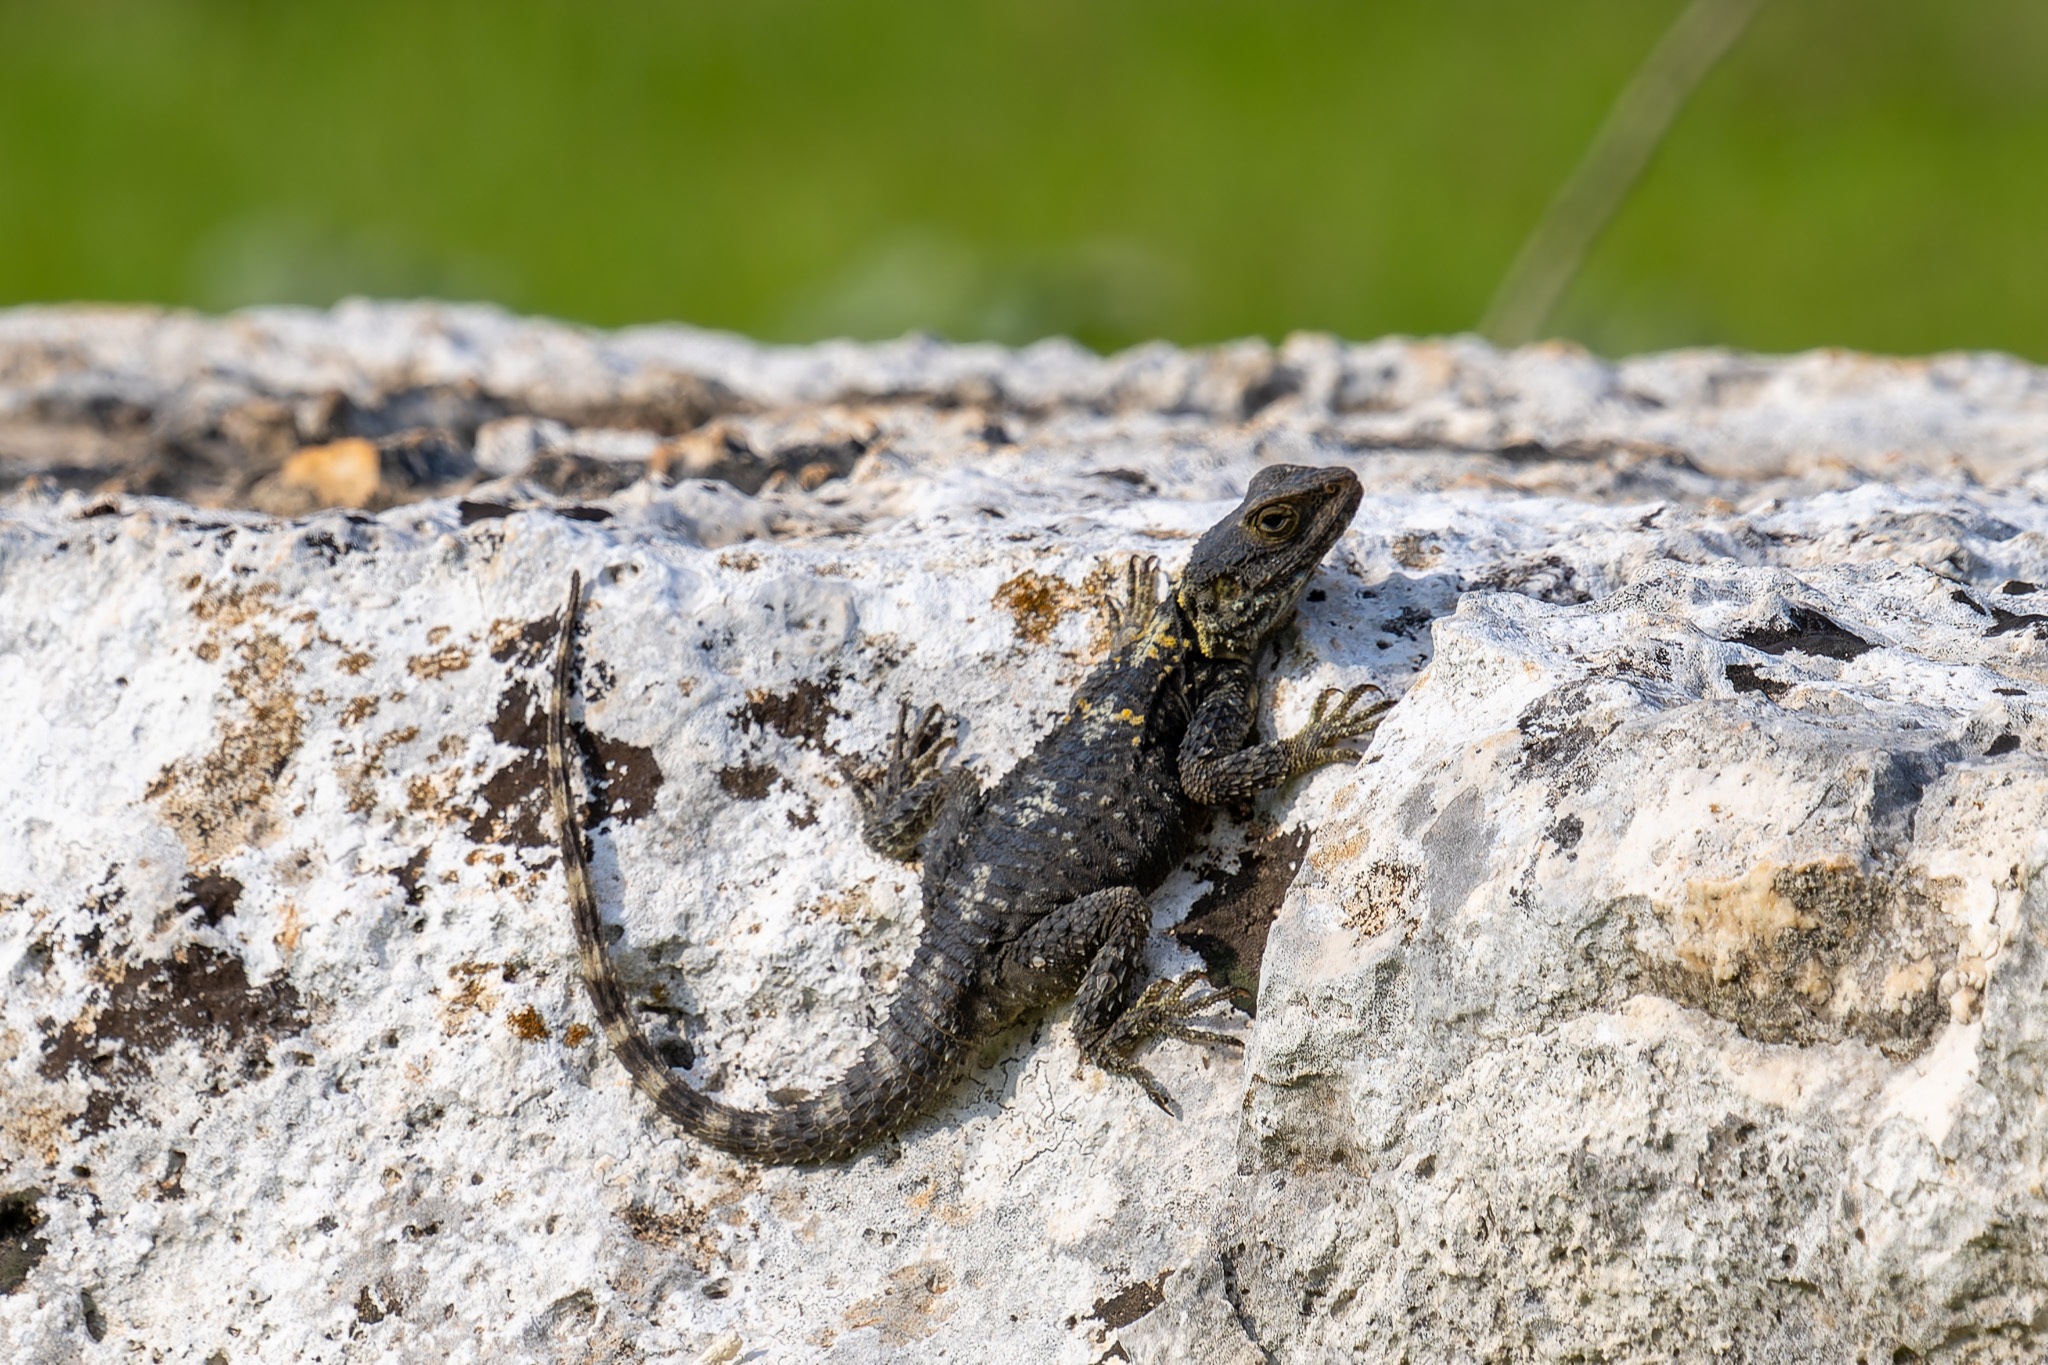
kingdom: Animalia
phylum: Chordata
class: Squamata
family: Agamidae
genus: Stellagama
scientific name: Stellagama stellio
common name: Starred agama
